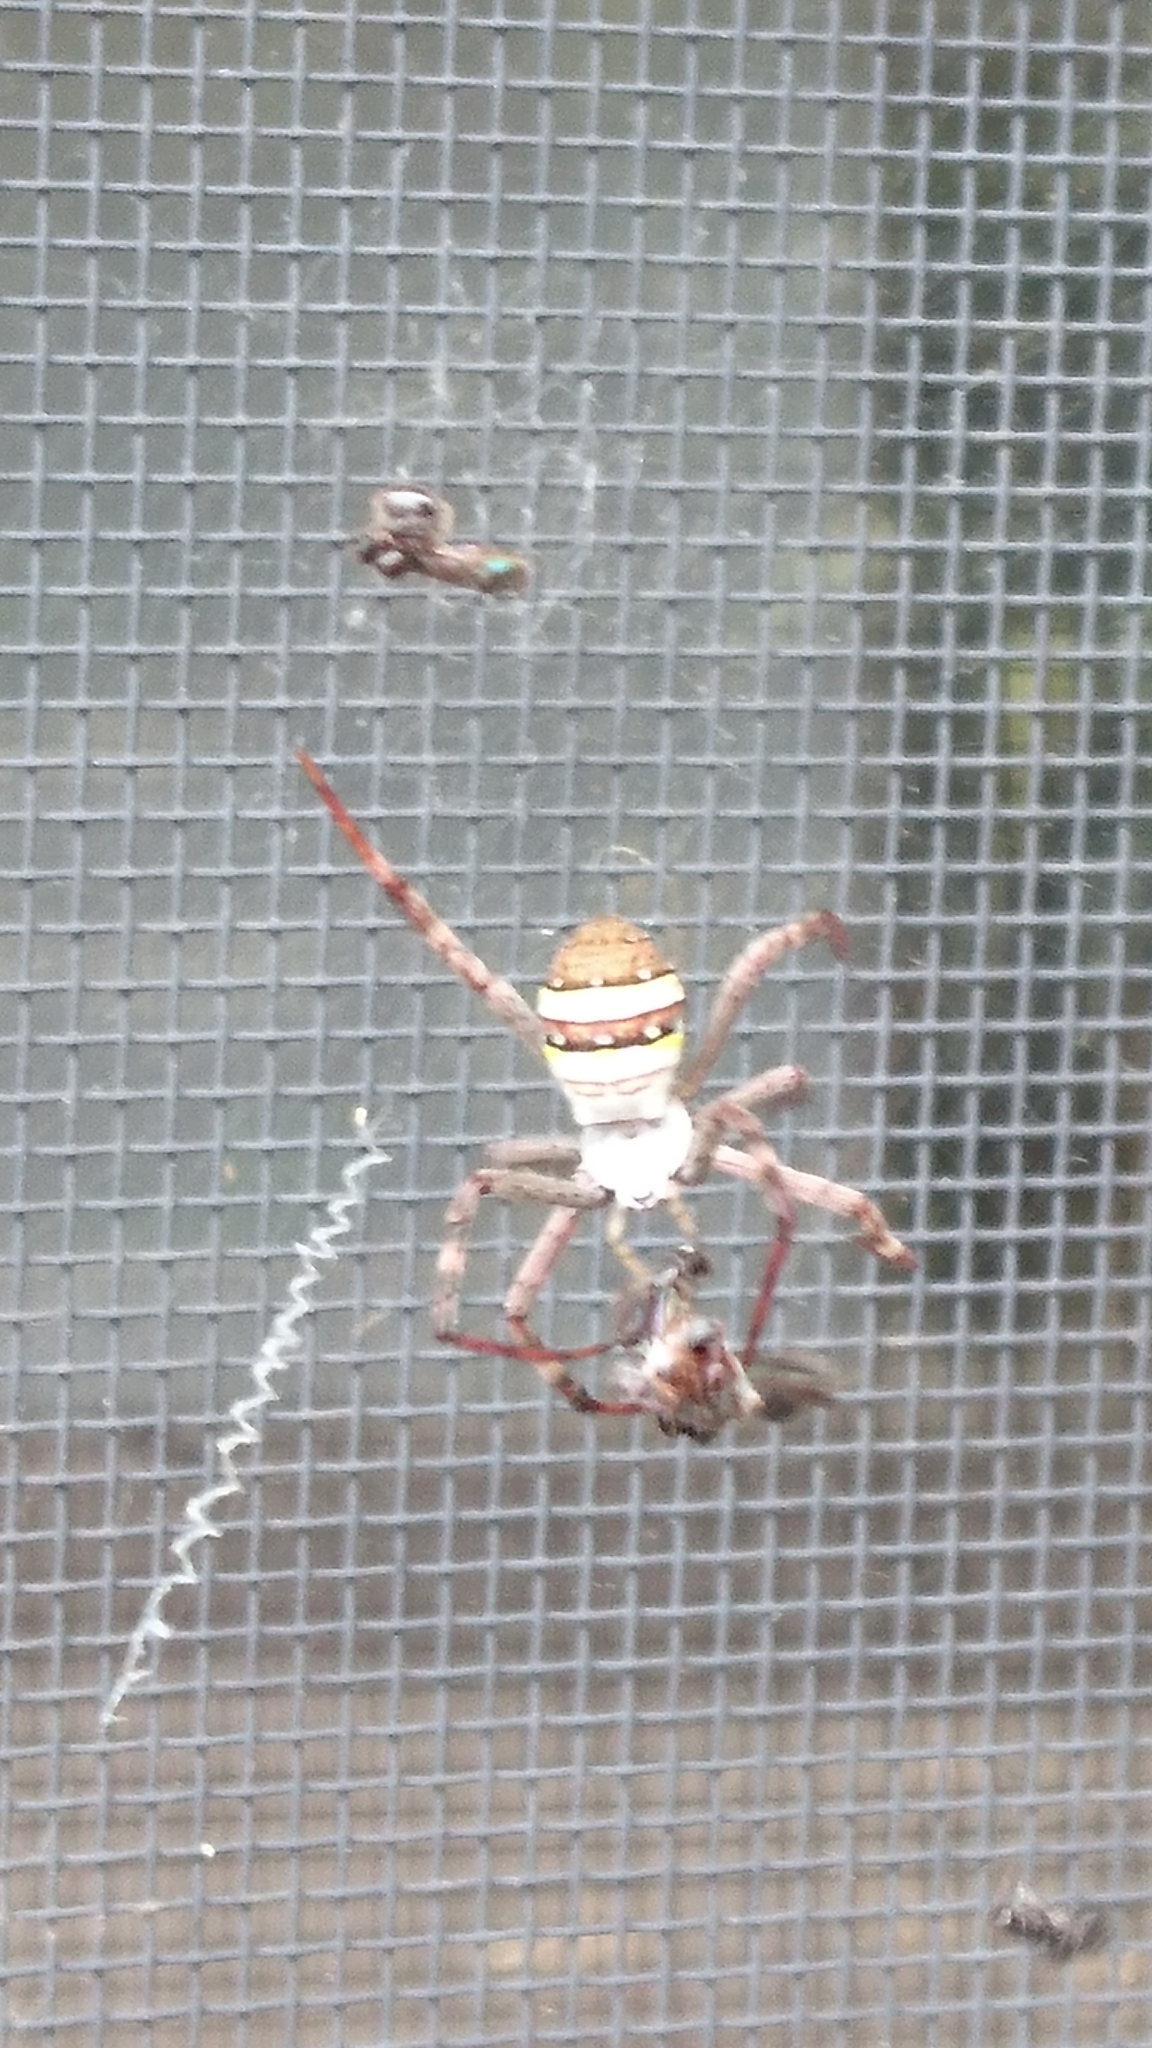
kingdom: Animalia
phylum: Arthropoda
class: Arachnida
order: Araneae
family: Araneidae
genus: Argiope
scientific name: Argiope keyserlingi
